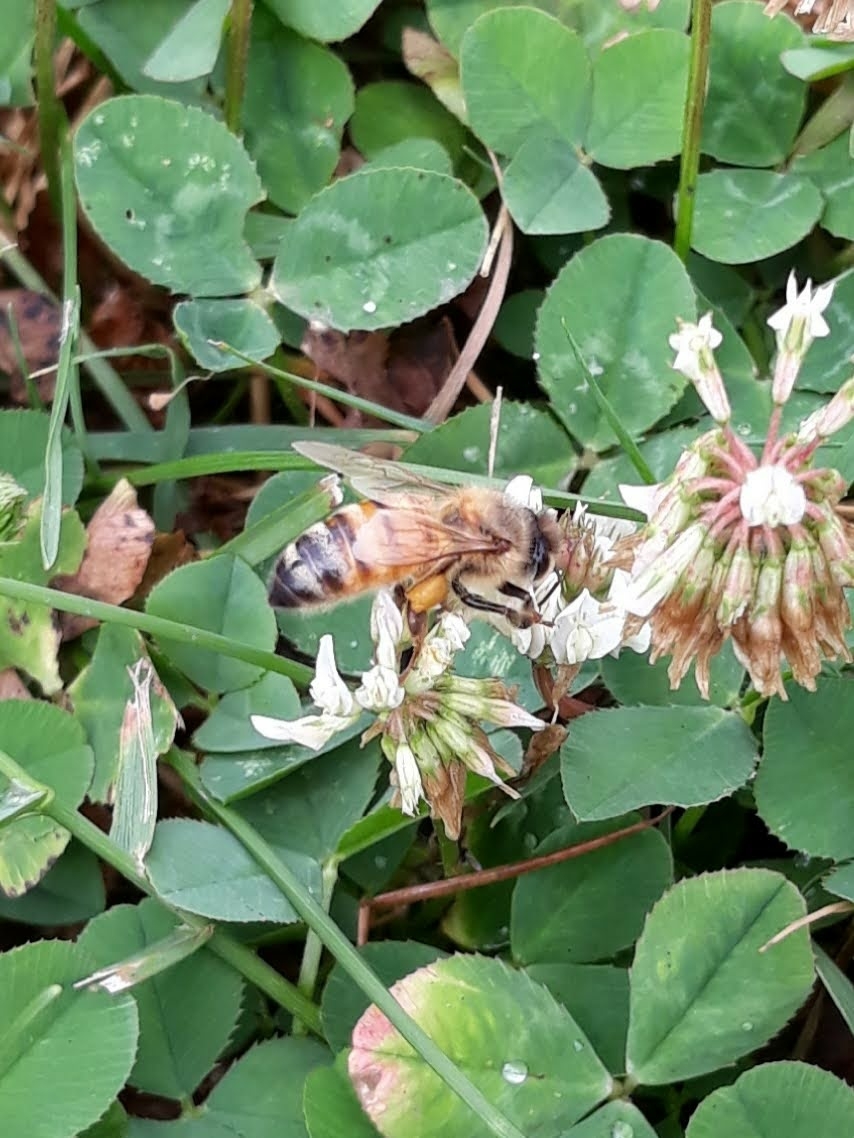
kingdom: Animalia
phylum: Arthropoda
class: Insecta
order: Hymenoptera
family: Apidae
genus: Apis
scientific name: Apis mellifera
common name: Honey bee
